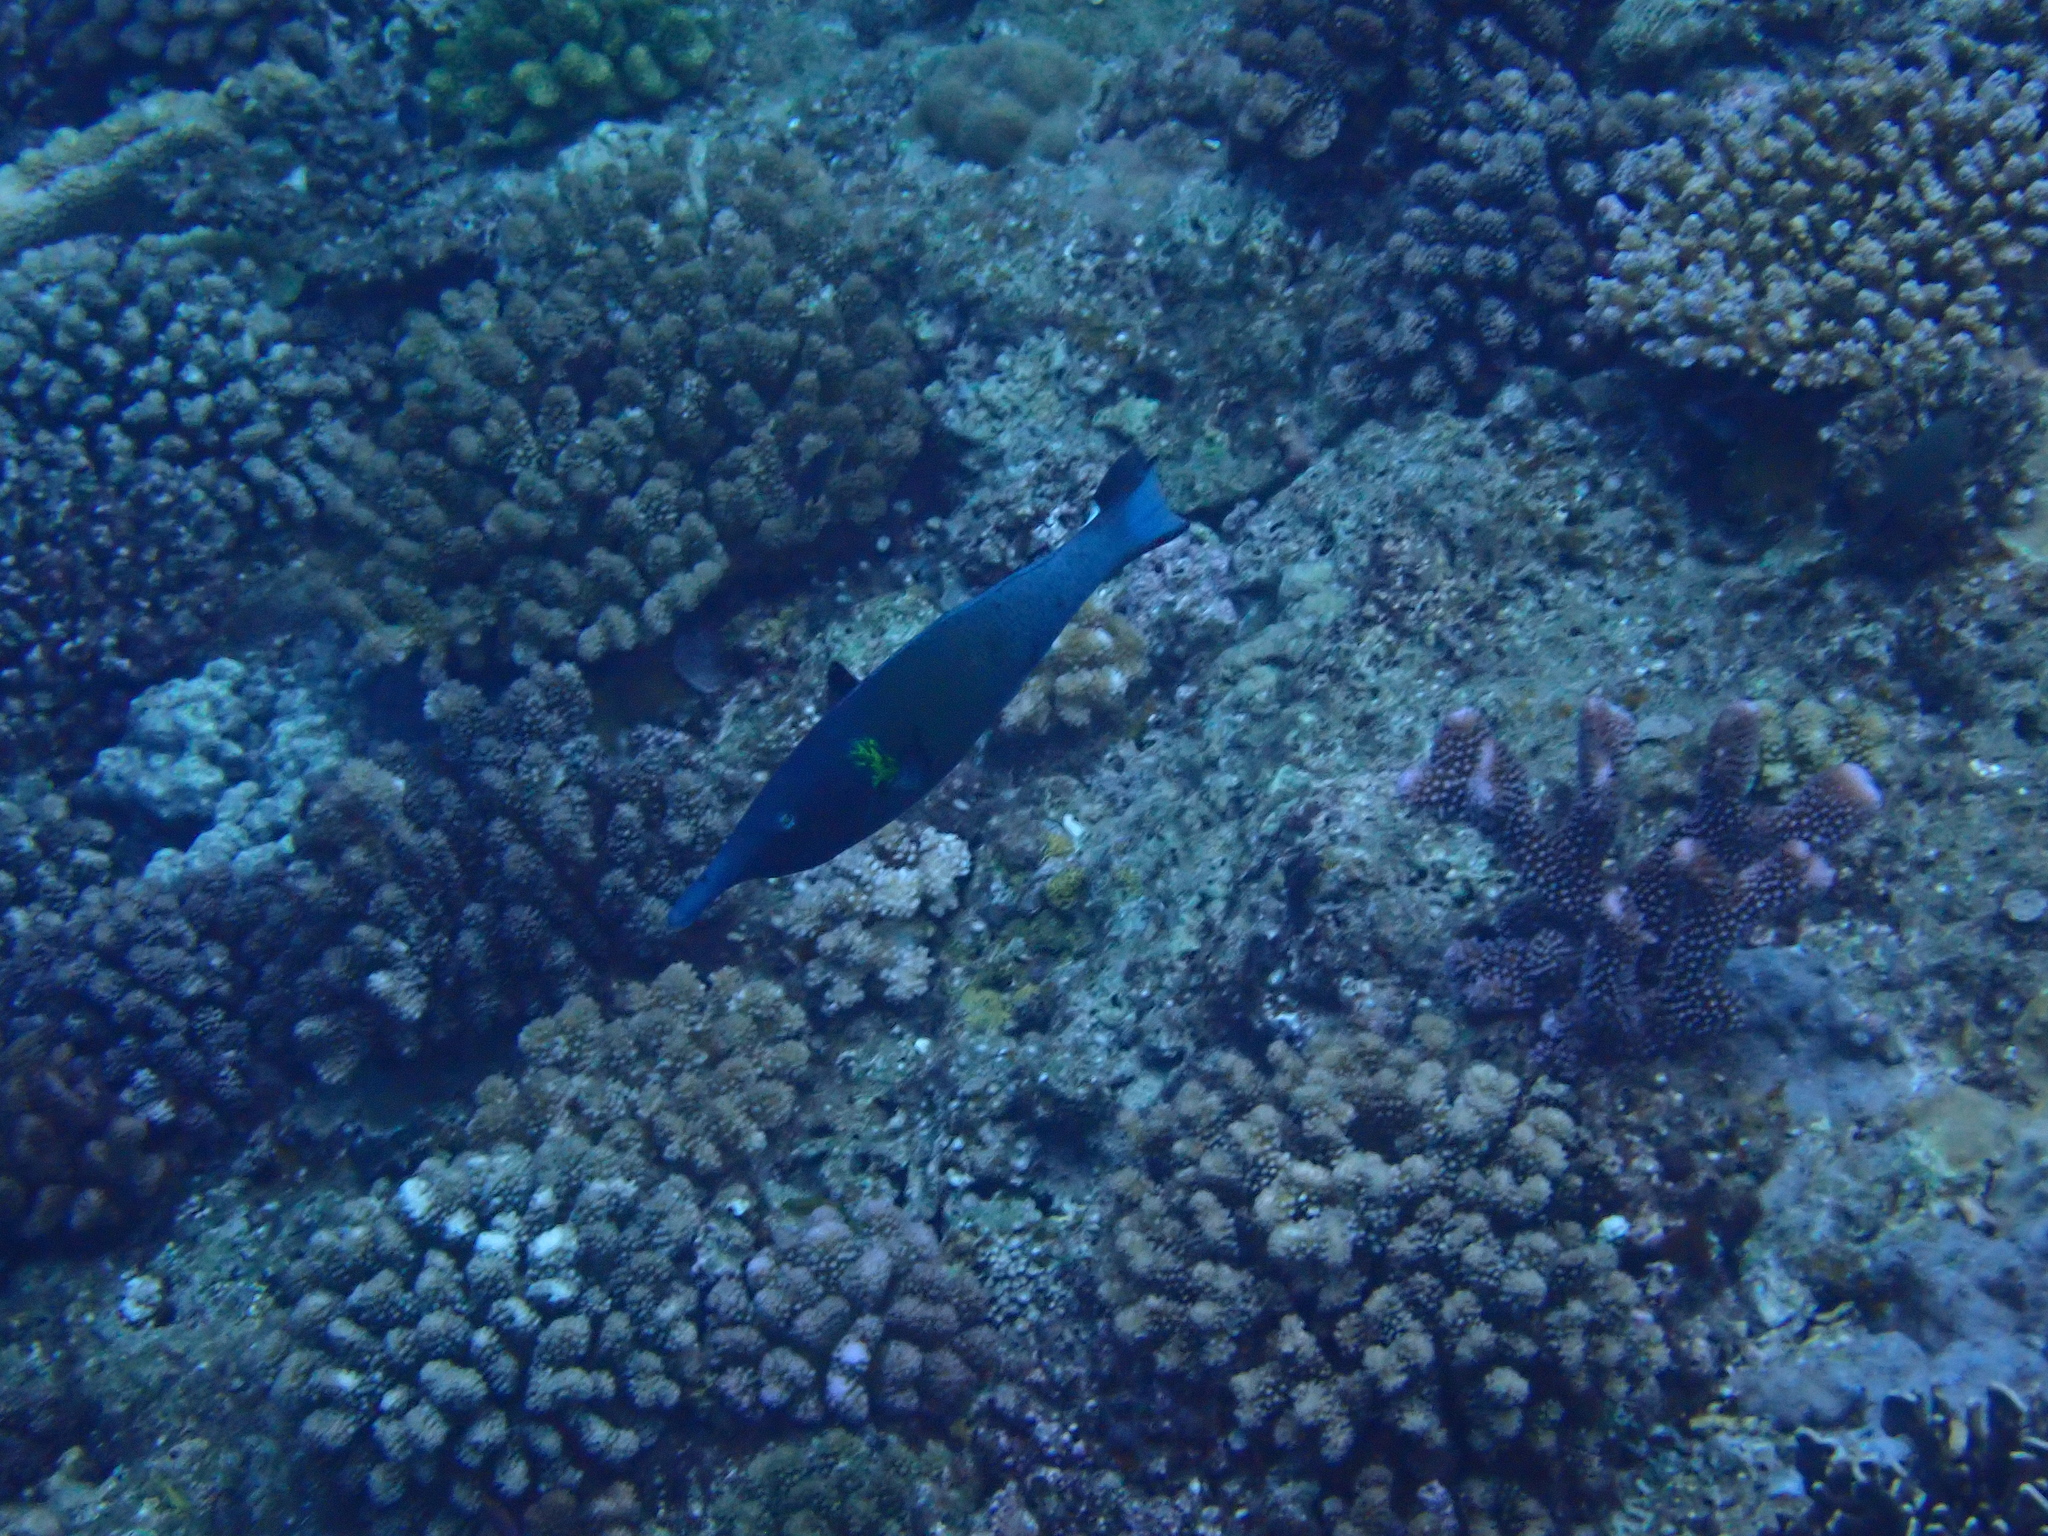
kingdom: Animalia
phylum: Chordata
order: Perciformes
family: Labridae
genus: Gomphosus
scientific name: Gomphosus varius
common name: Bird wrasse
